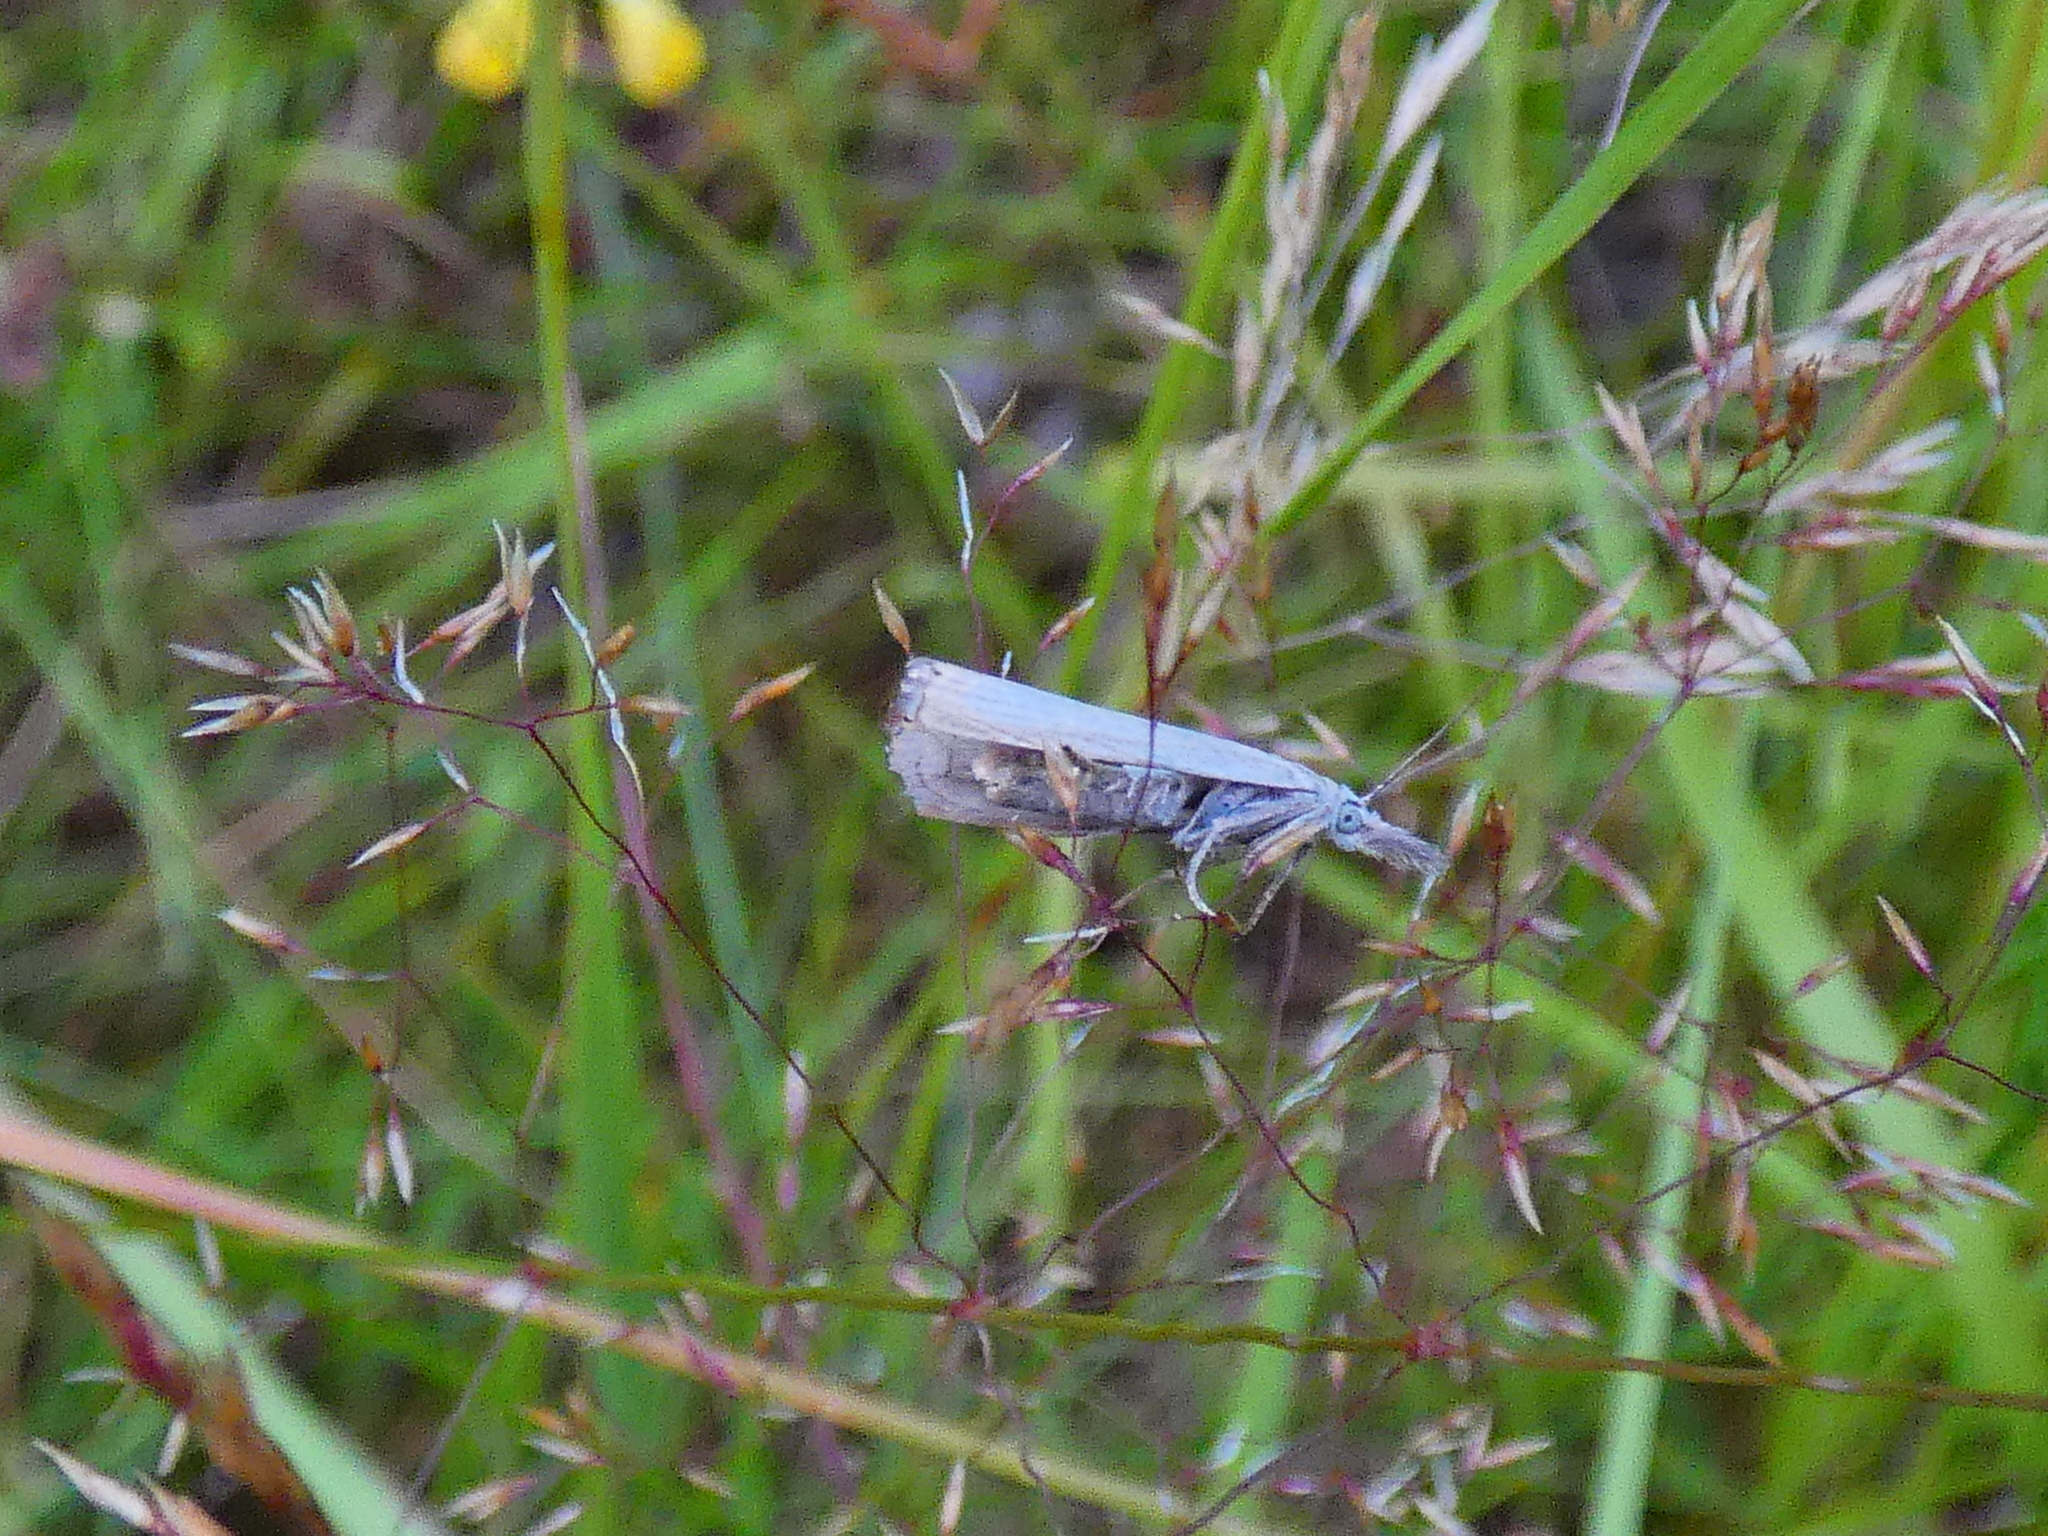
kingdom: Animalia
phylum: Arthropoda
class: Insecta
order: Lepidoptera
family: Crambidae
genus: Chrysoteuchia
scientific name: Chrysoteuchia culmella
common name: Garden grass-veneer
